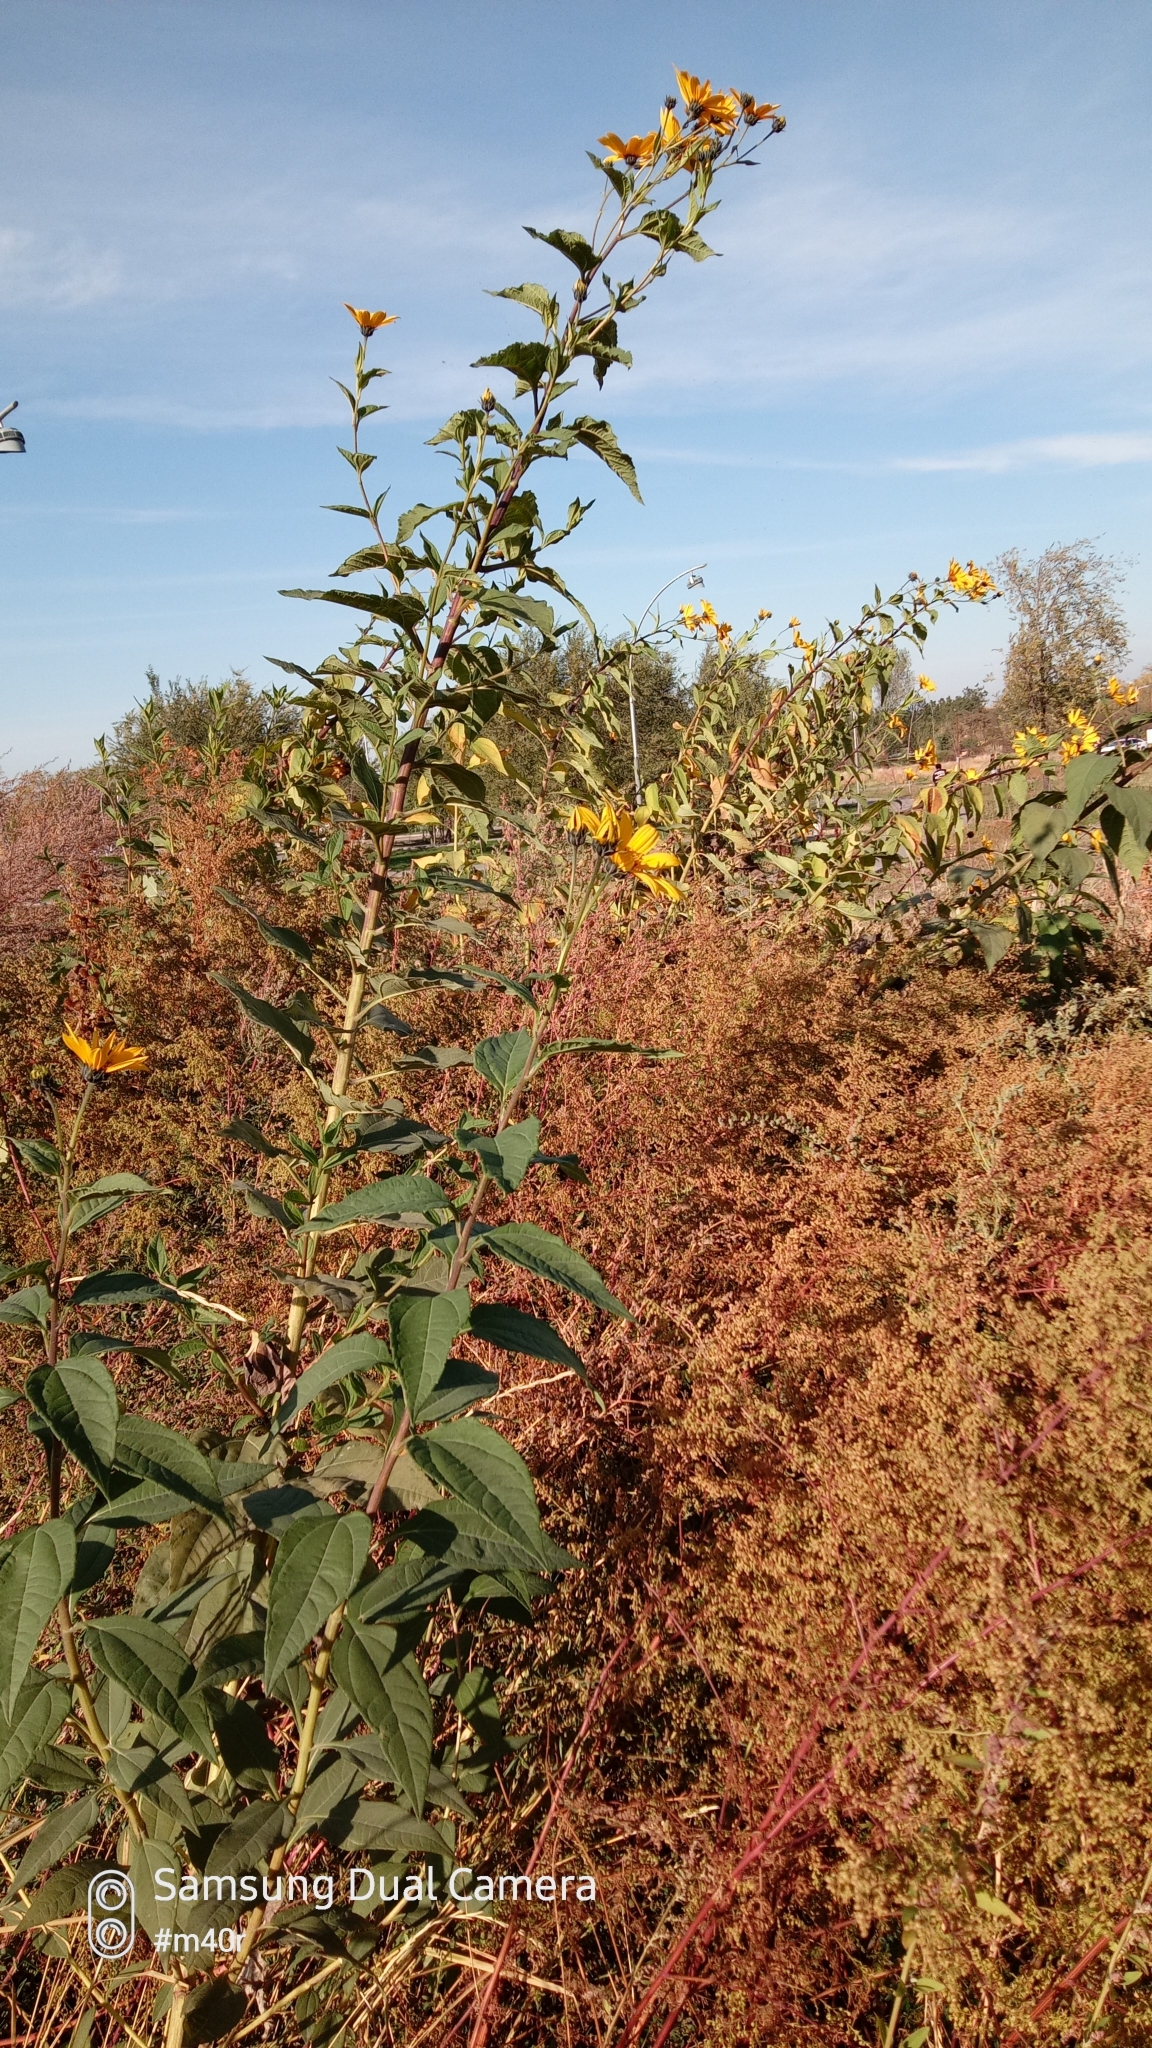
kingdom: Plantae
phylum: Tracheophyta
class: Magnoliopsida
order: Asterales
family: Asteraceae
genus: Helianthus
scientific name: Helianthus tuberosus
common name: Jerusalem artichoke
